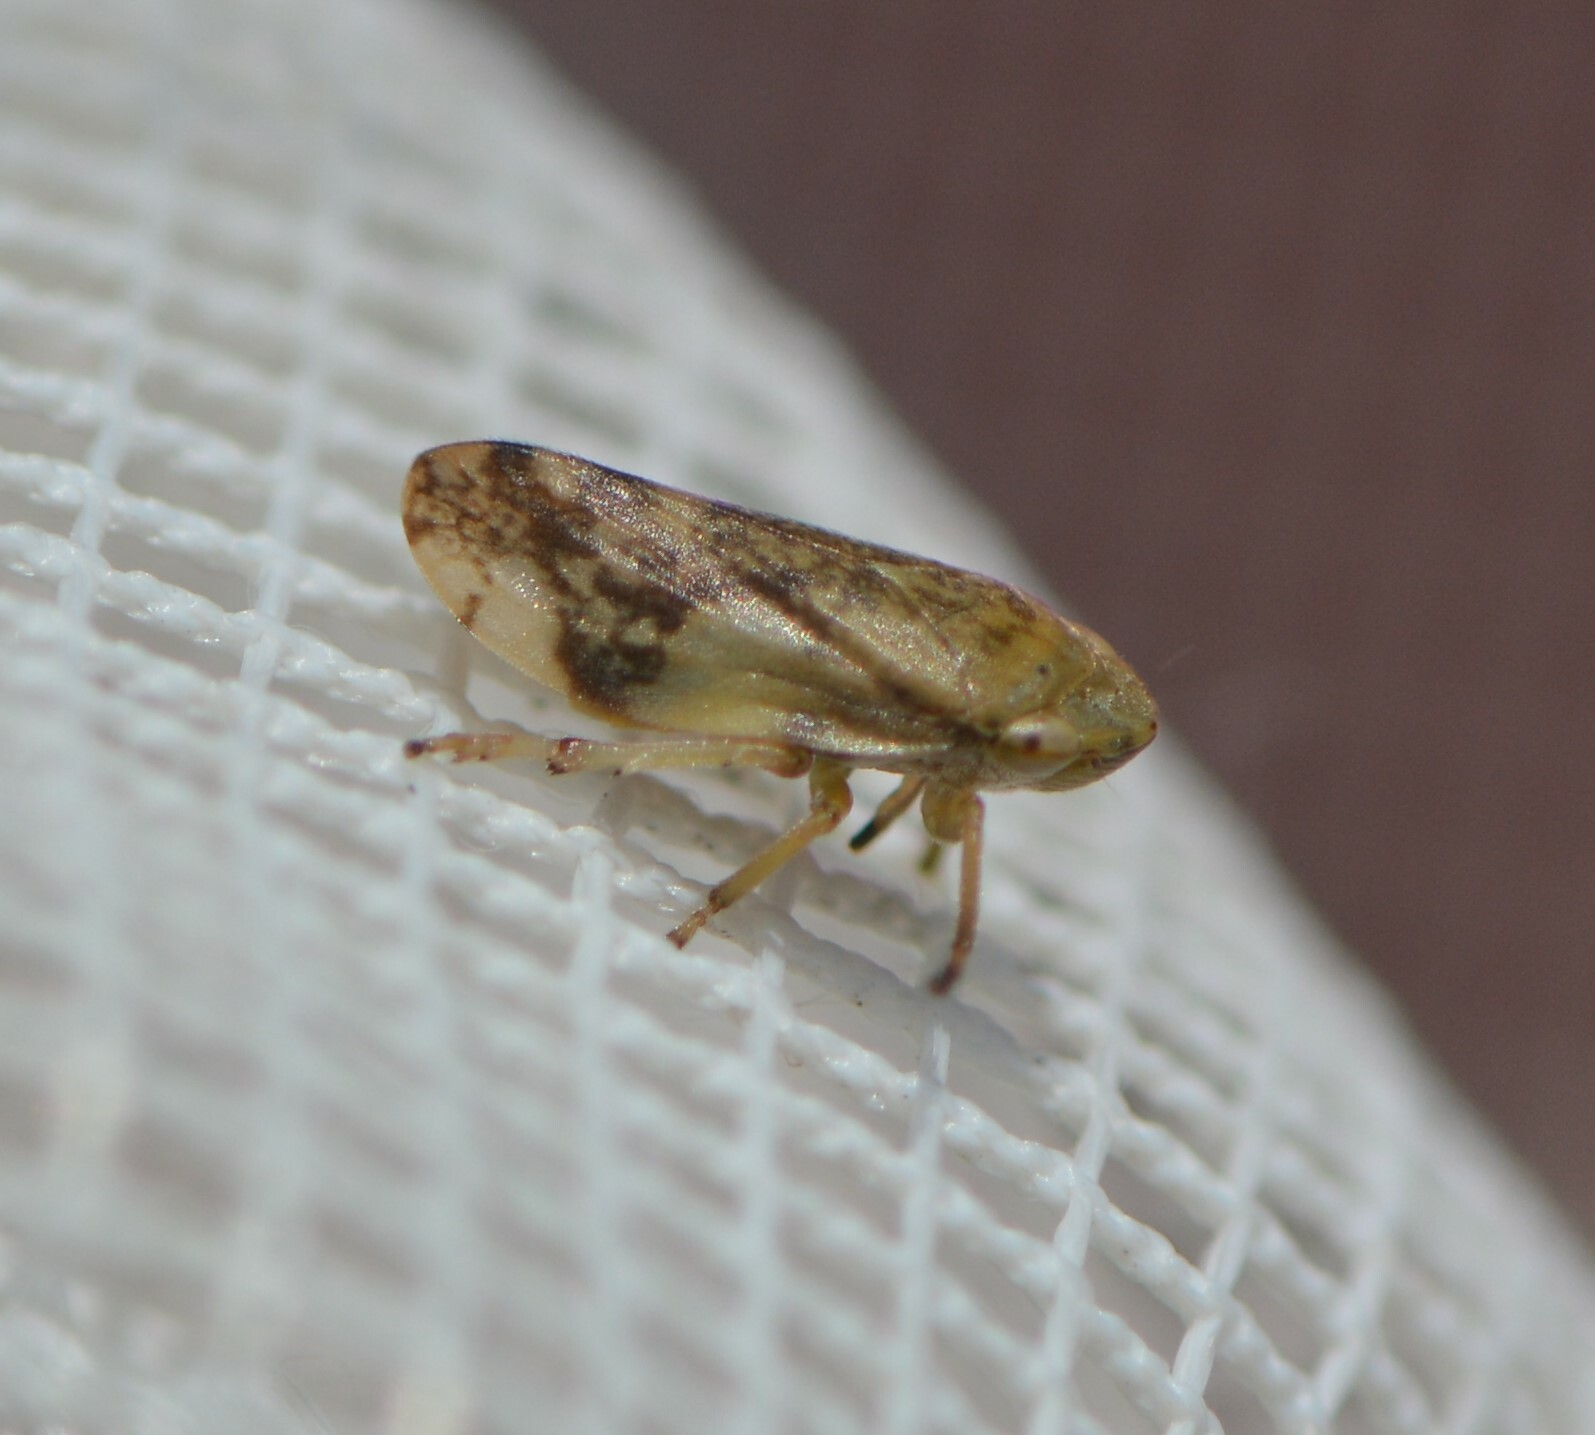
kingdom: Animalia
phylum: Arthropoda
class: Insecta
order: Hemiptera
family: Aphrophoridae
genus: Philaenus
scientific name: Philaenus spumarius
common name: Meadow spittlebug
